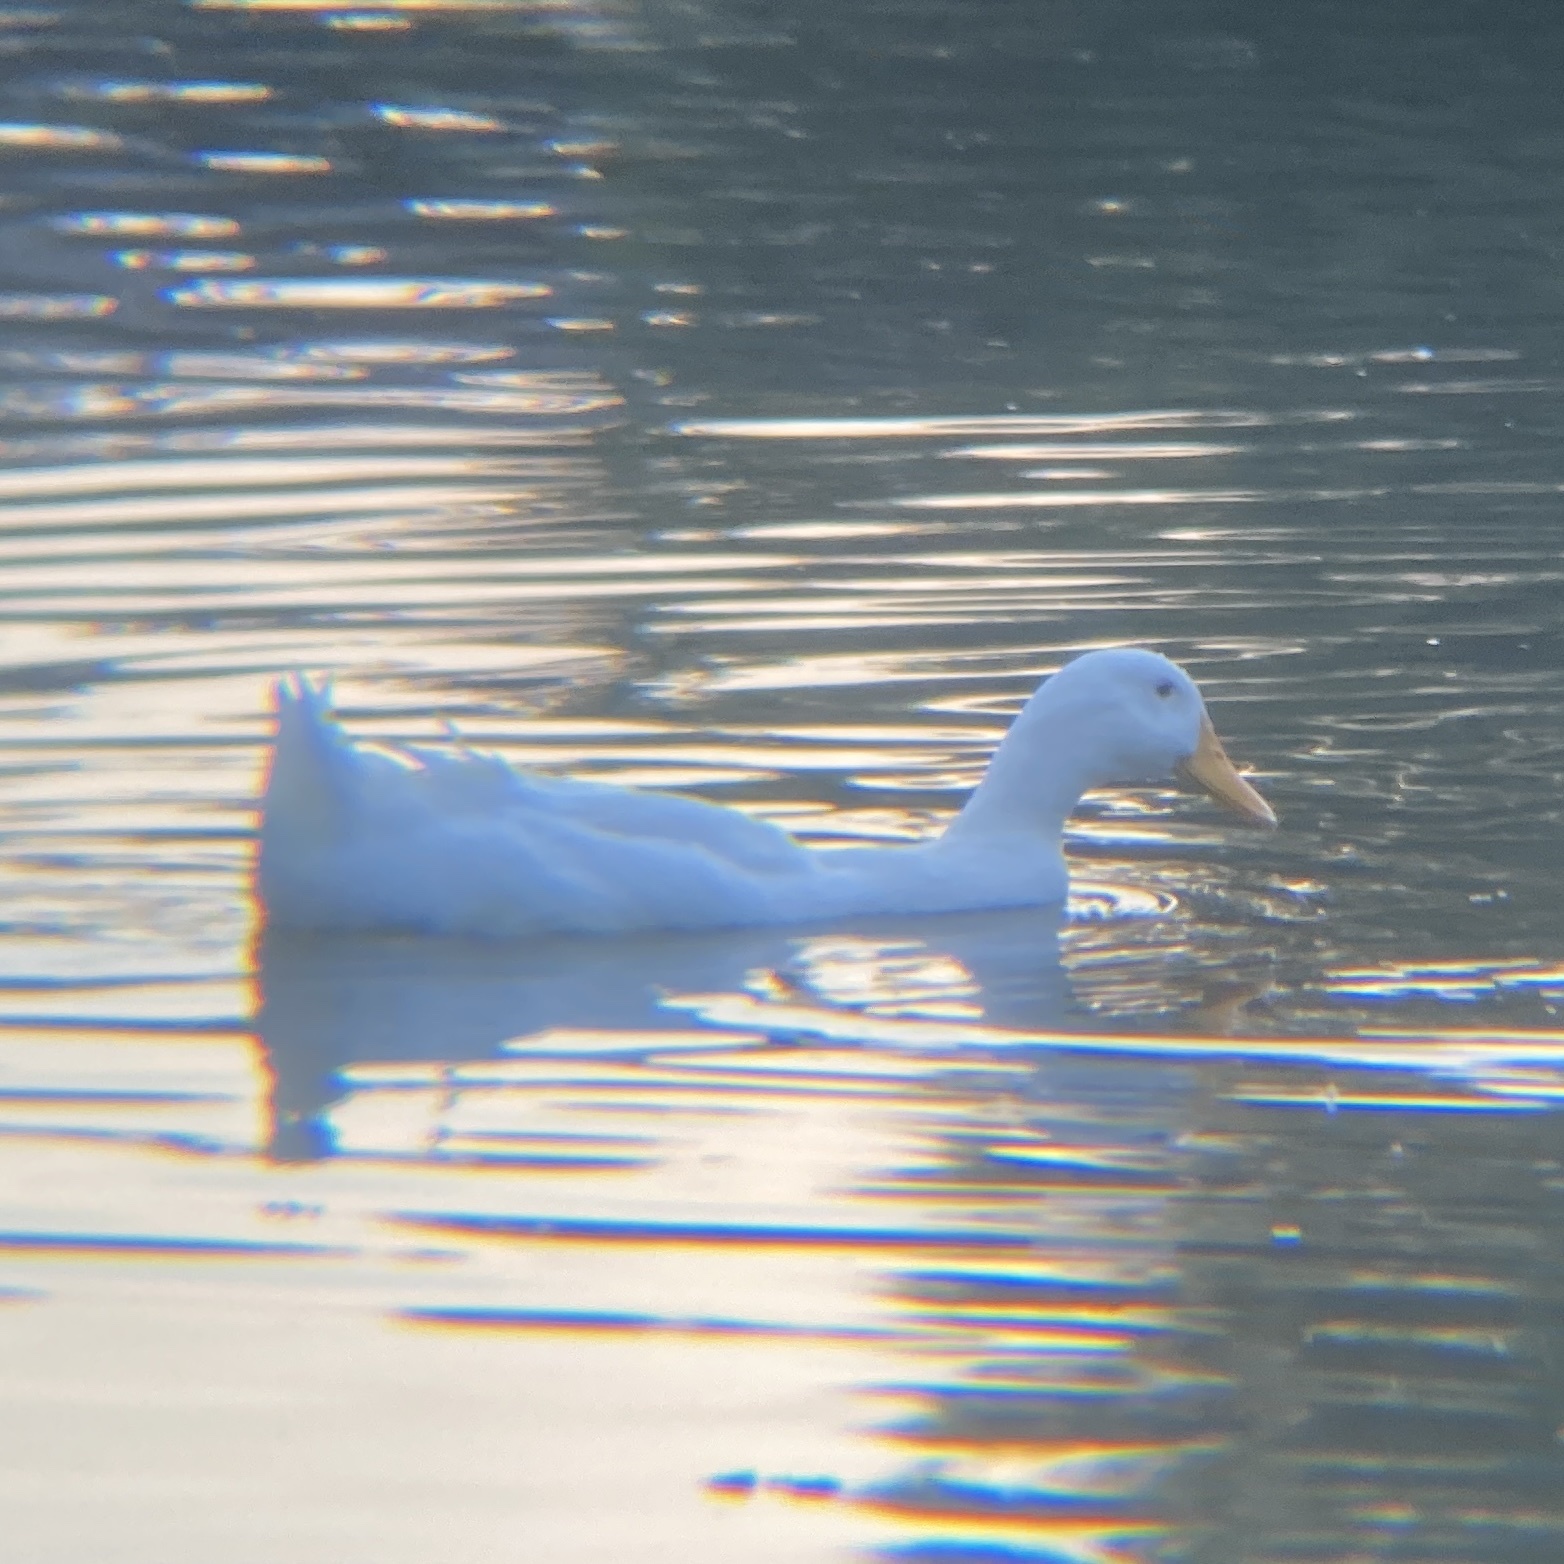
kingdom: Animalia
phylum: Chordata
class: Aves
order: Anseriformes
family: Anatidae
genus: Anas
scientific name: Anas platyrhynchos
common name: Mallard
